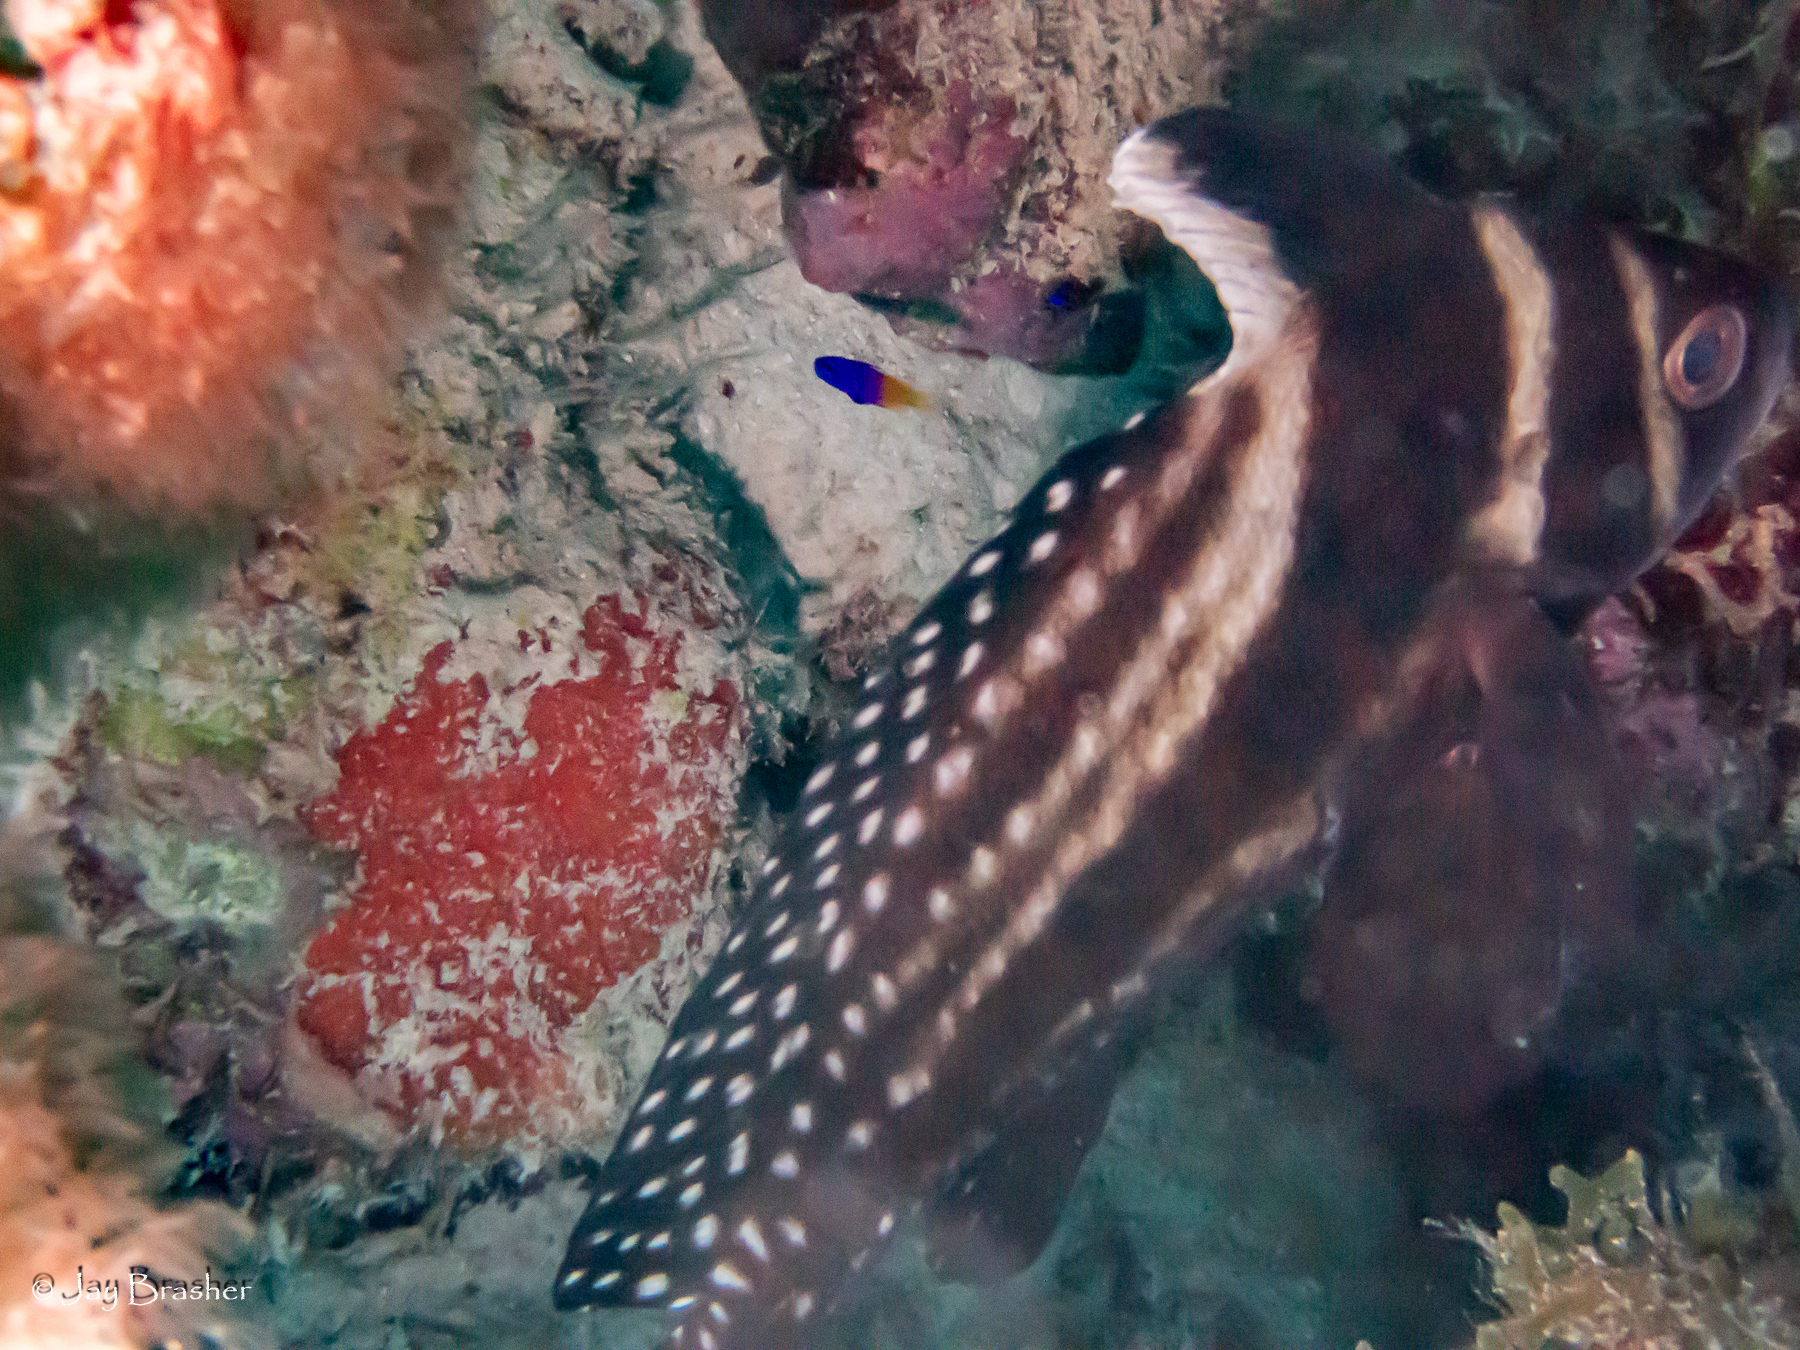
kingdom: Animalia
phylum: Chordata
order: Perciformes
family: Sciaenidae
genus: Equetus
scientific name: Equetus punctatus
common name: Spotted drum
